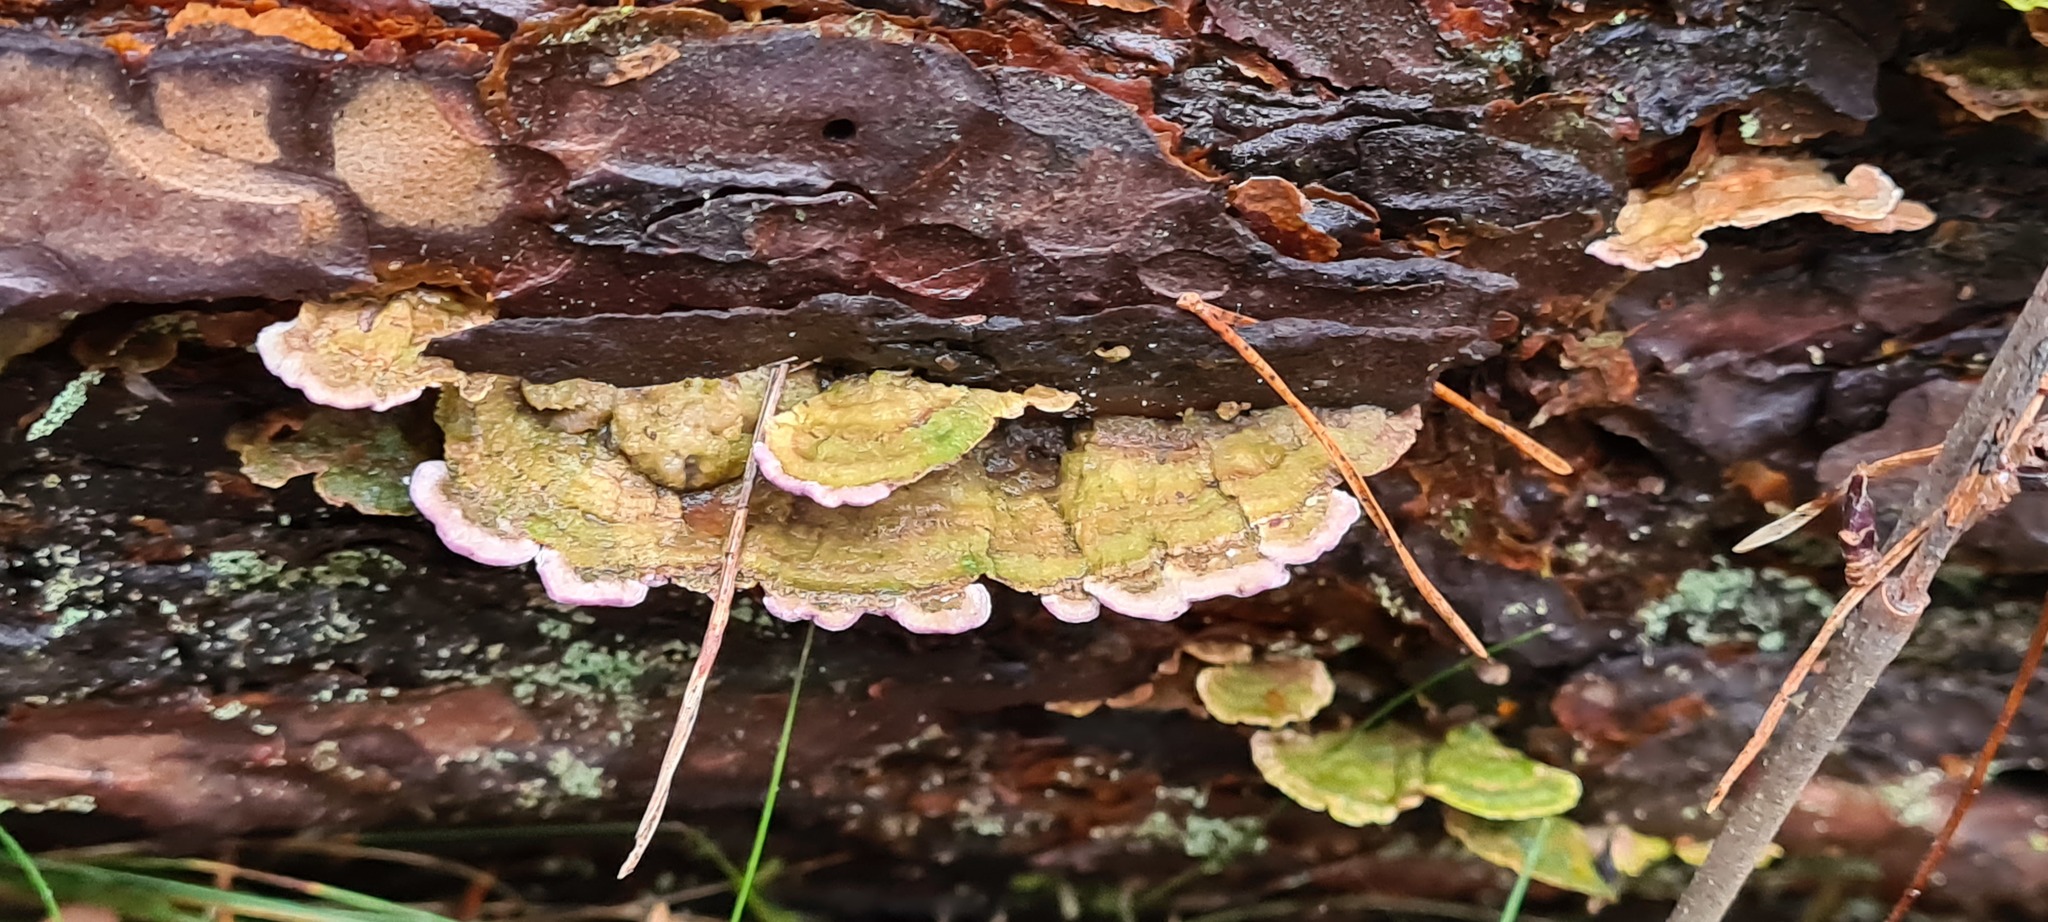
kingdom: Fungi
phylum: Basidiomycota
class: Agaricomycetes
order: Hymenochaetales
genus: Trichaptum
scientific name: Trichaptum abietinum
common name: Purplepore bracket
